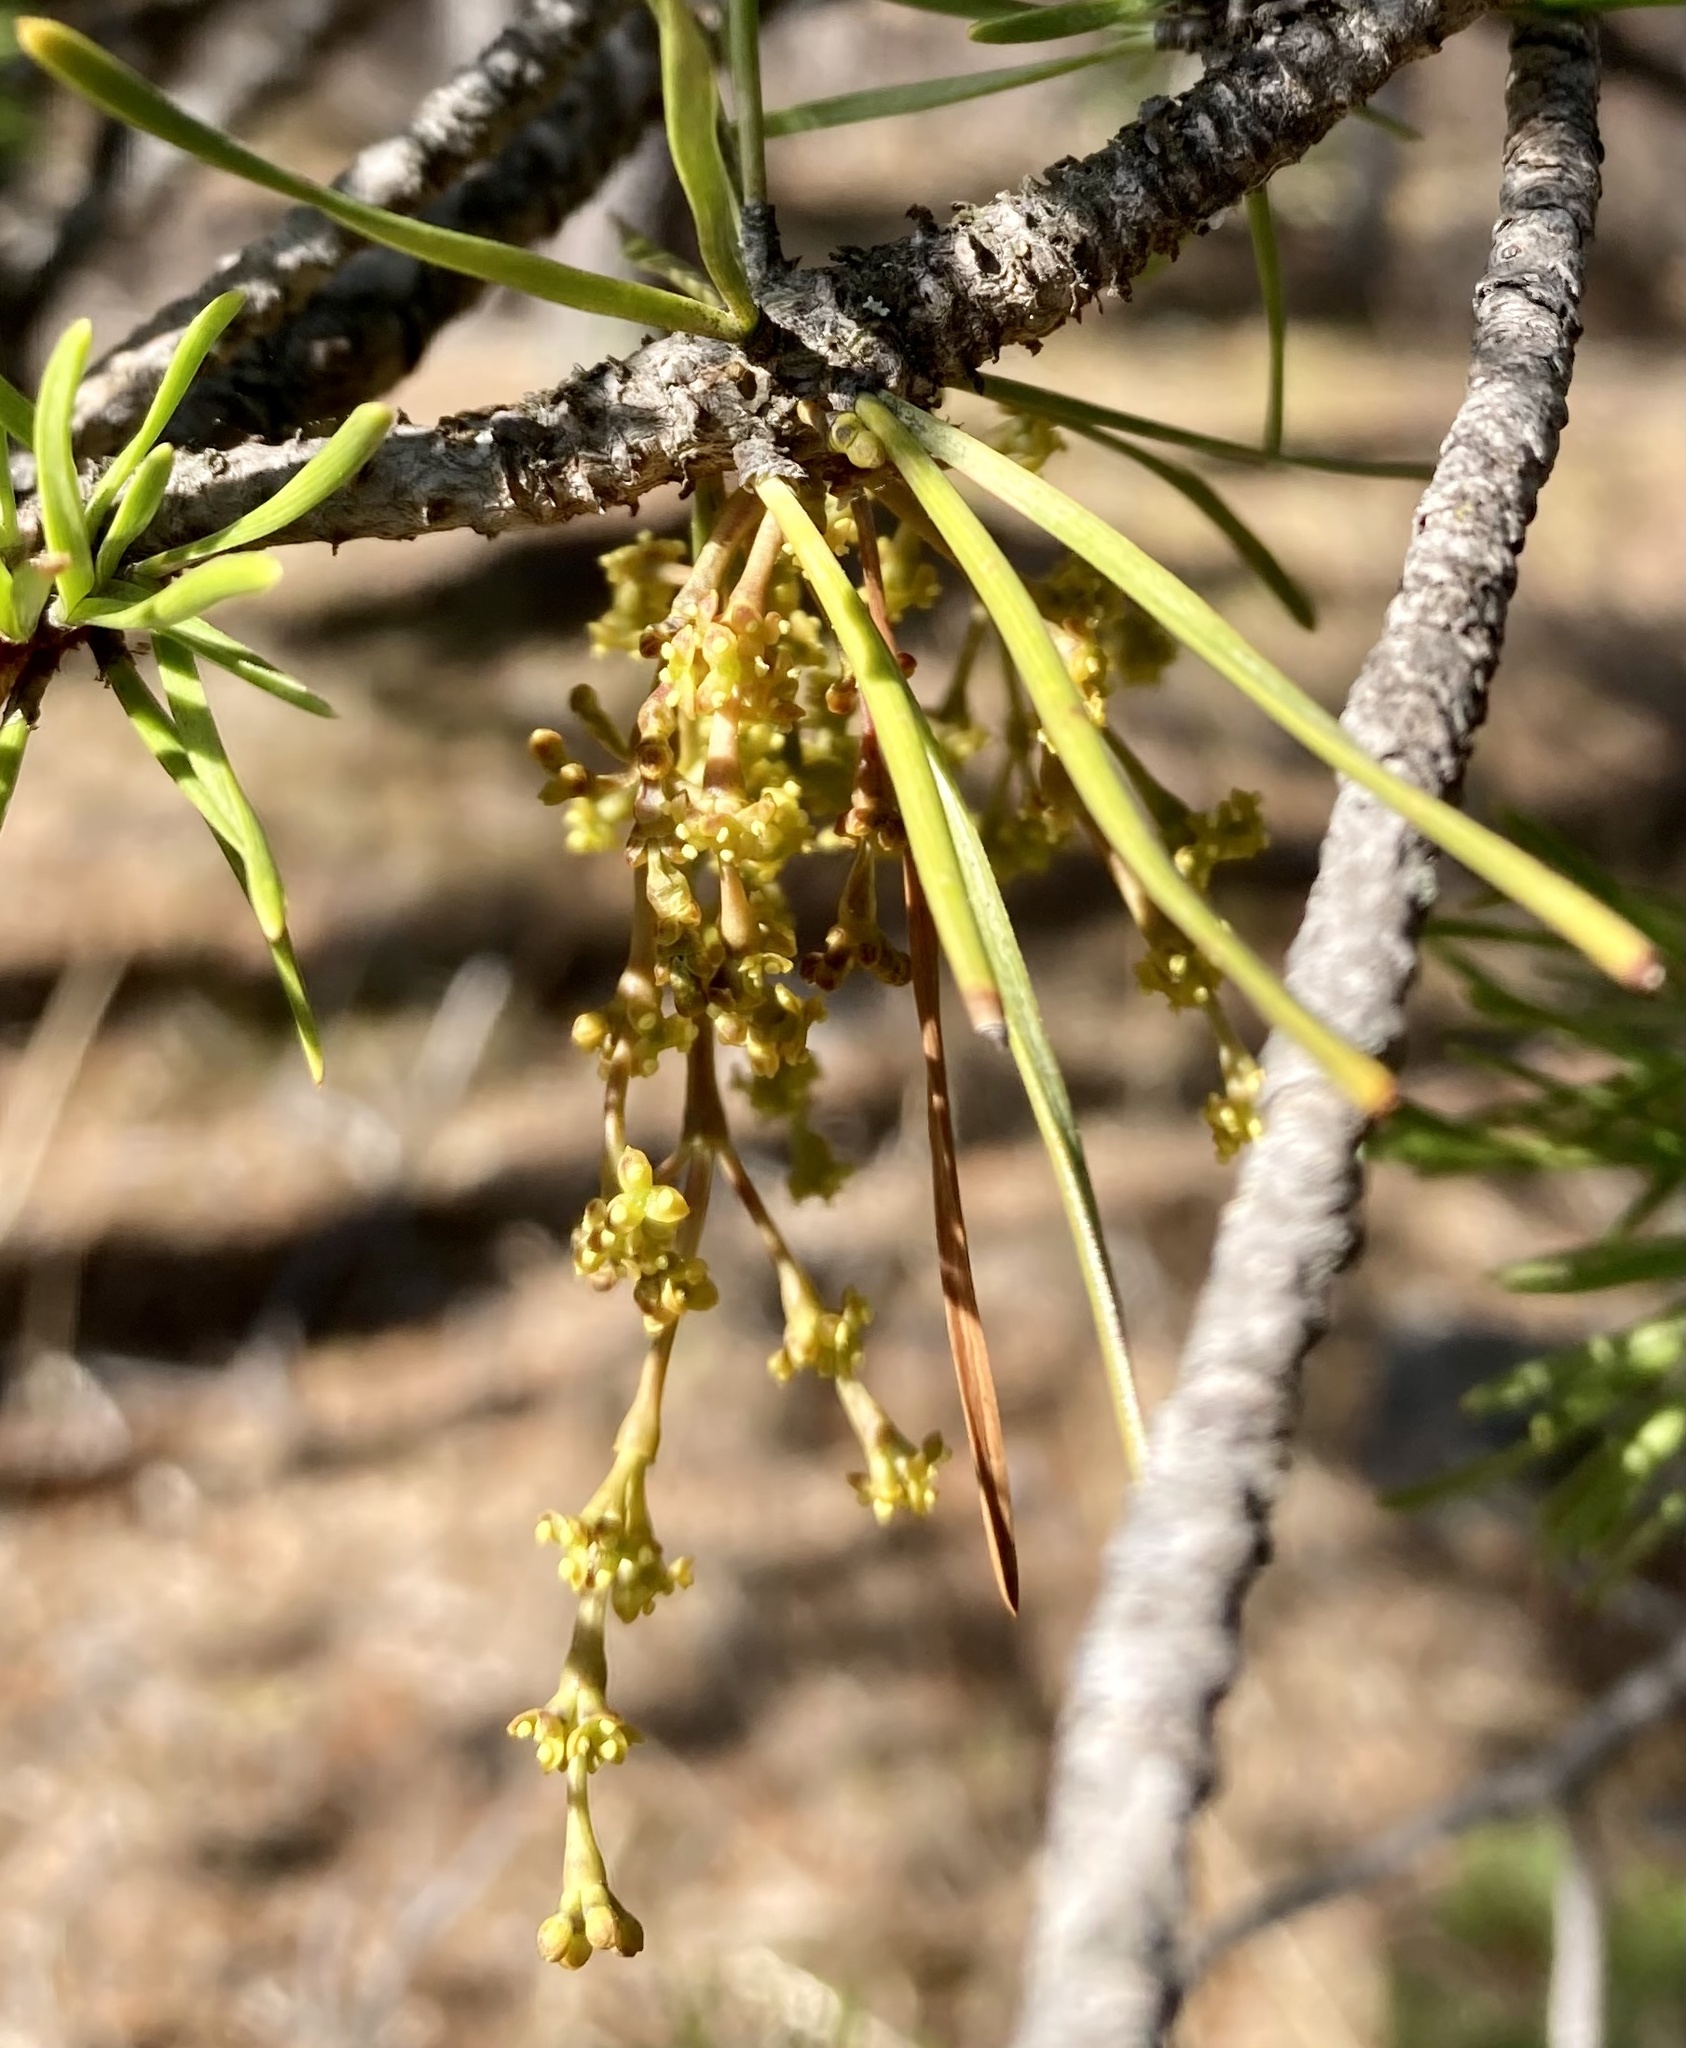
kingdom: Plantae
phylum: Tracheophyta
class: Magnoliopsida
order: Santalales
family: Viscaceae
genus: Arceuthobium
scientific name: Arceuthobium americanum
